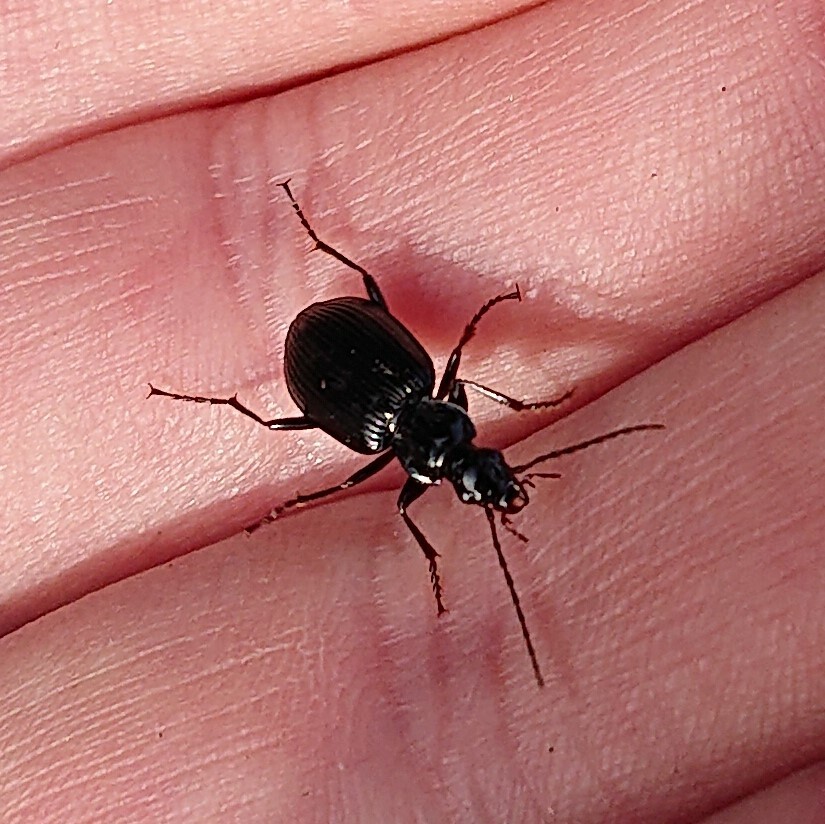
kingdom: Animalia
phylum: Arthropoda
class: Insecta
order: Coleoptera
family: Carabidae
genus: Platynus
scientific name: Platynus assimilis
